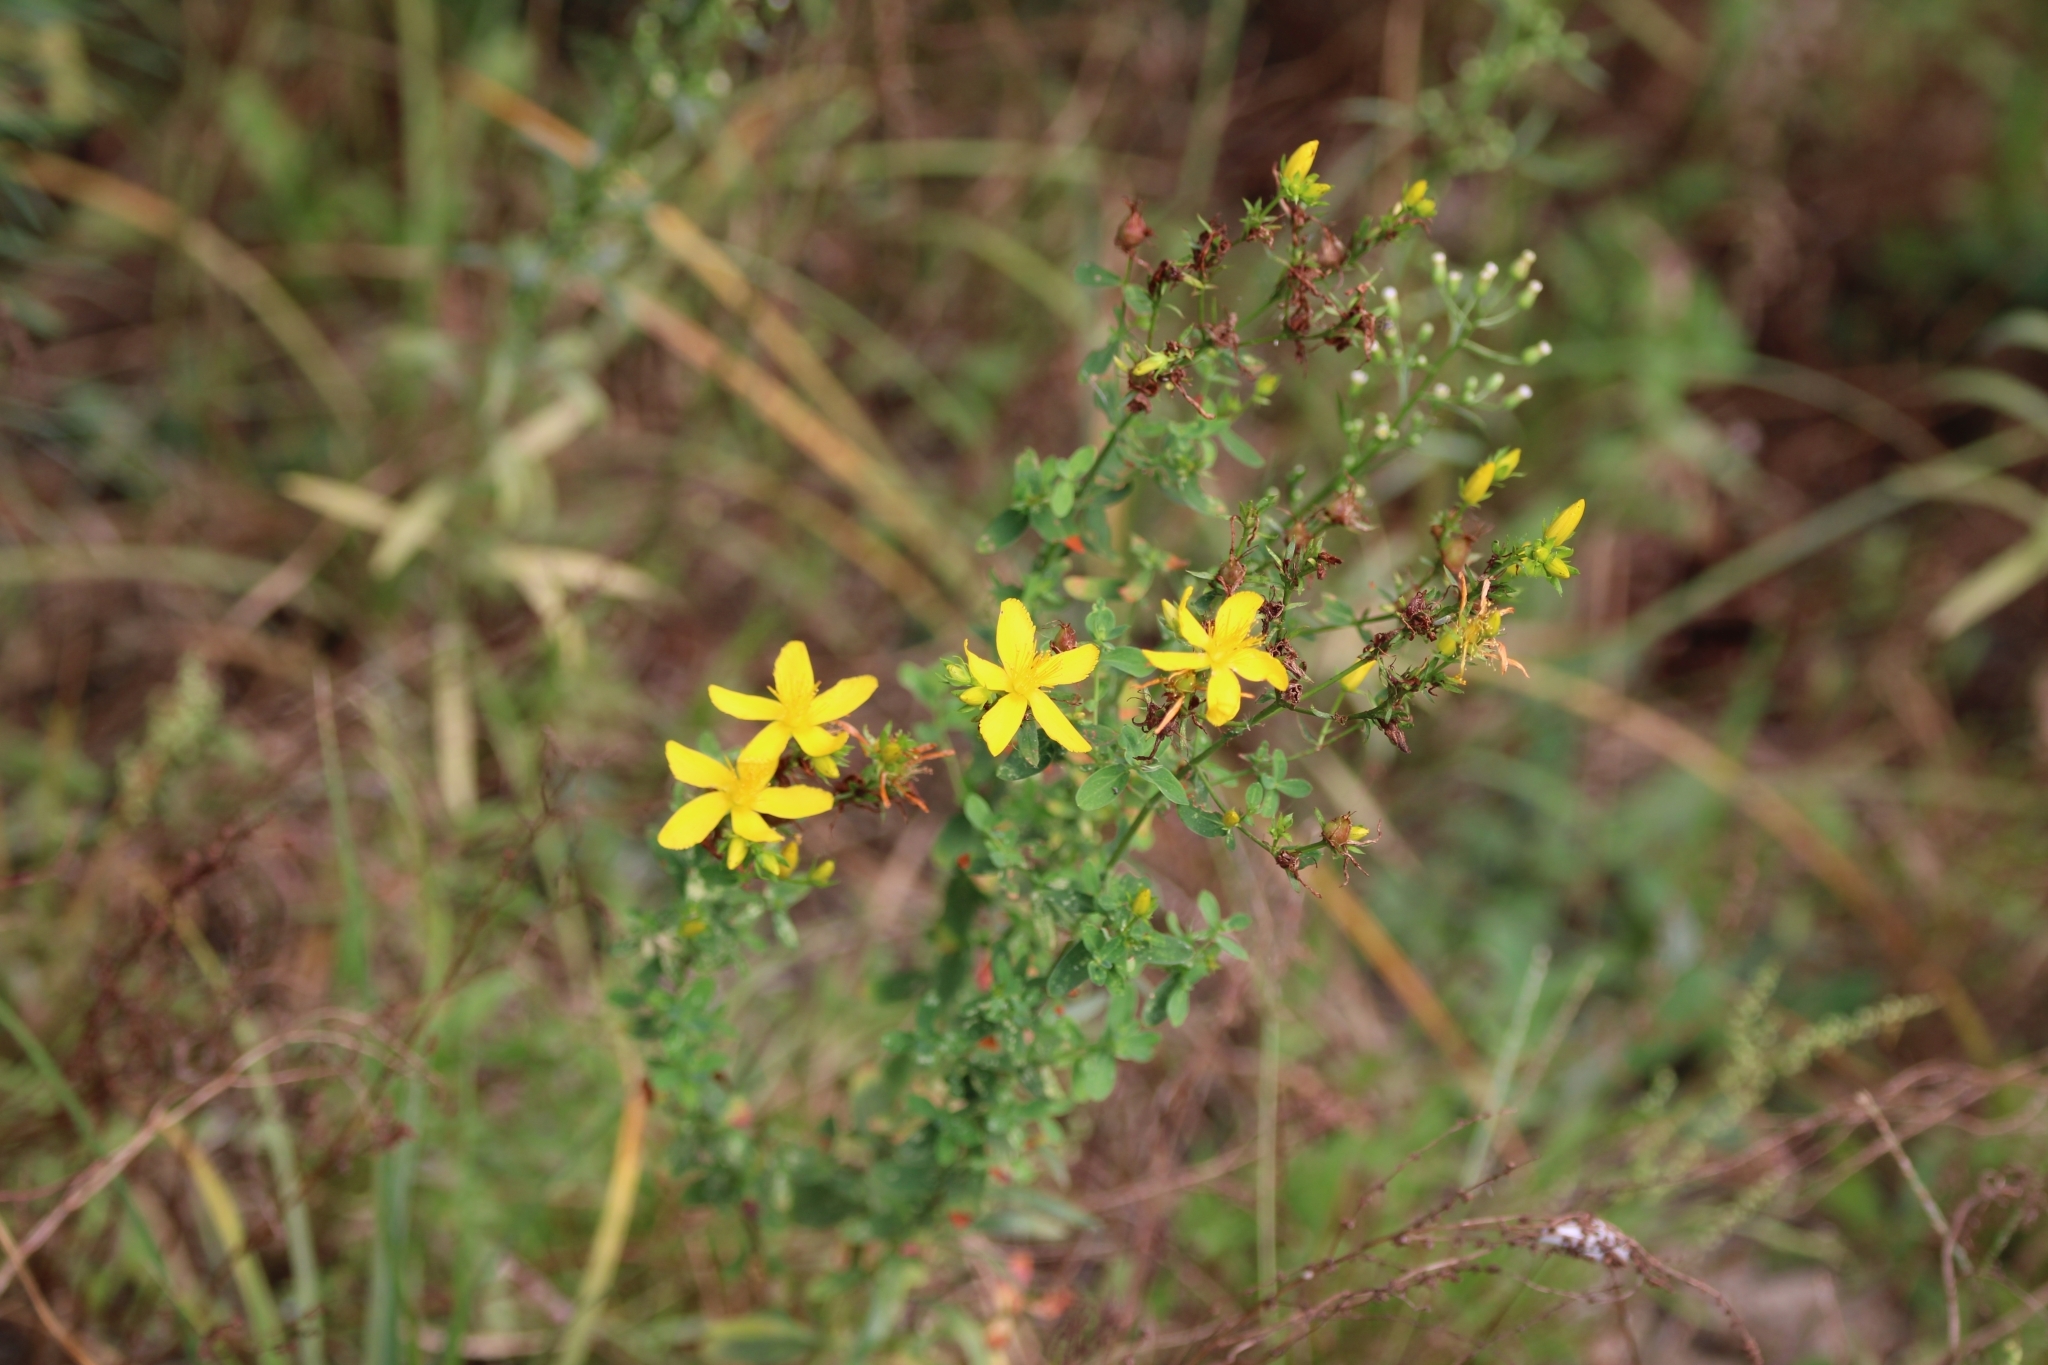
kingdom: Plantae
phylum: Tracheophyta
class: Magnoliopsida
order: Malpighiales
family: Hypericaceae
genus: Hypericum
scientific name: Hypericum perforatum
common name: Common st. johnswort
